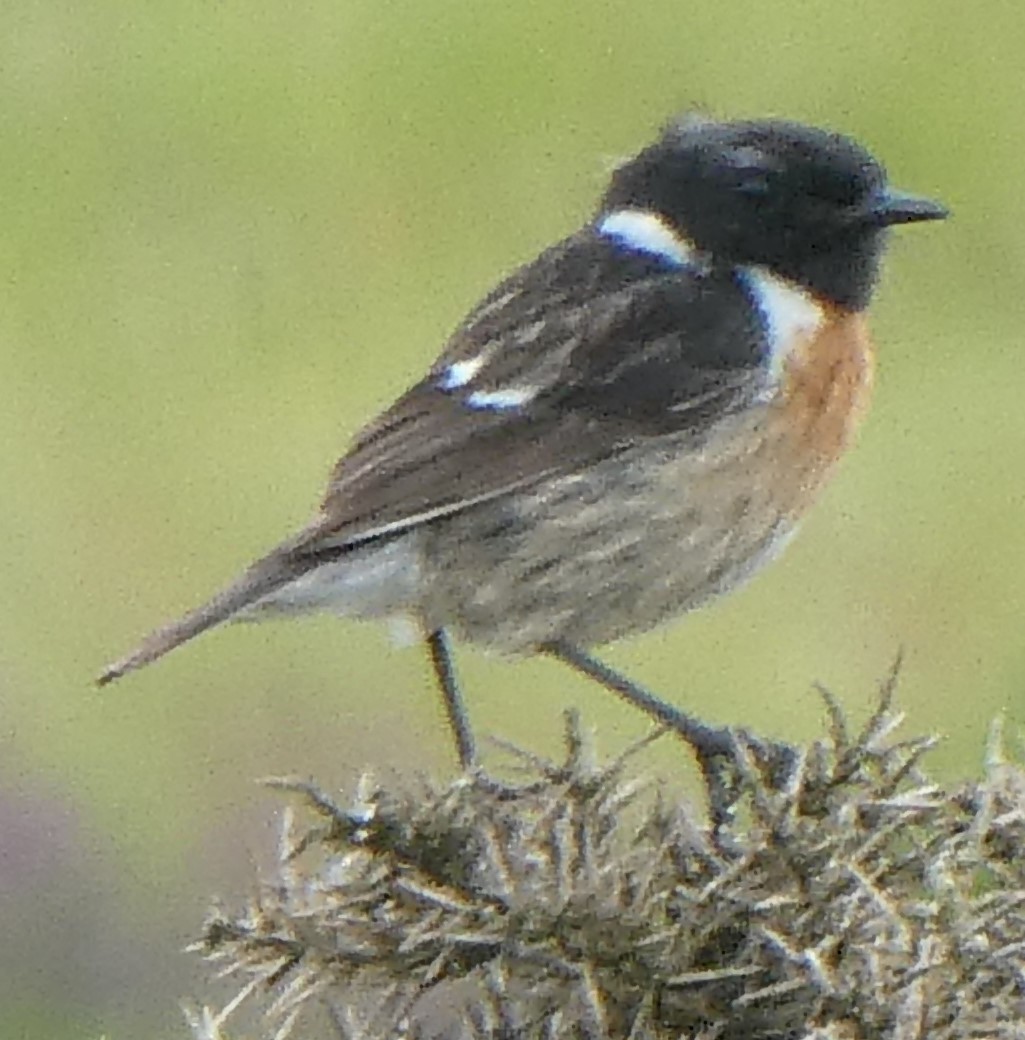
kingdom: Animalia
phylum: Chordata
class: Aves
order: Passeriformes
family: Muscicapidae
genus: Saxicola
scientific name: Saxicola rubicola
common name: European stonechat
